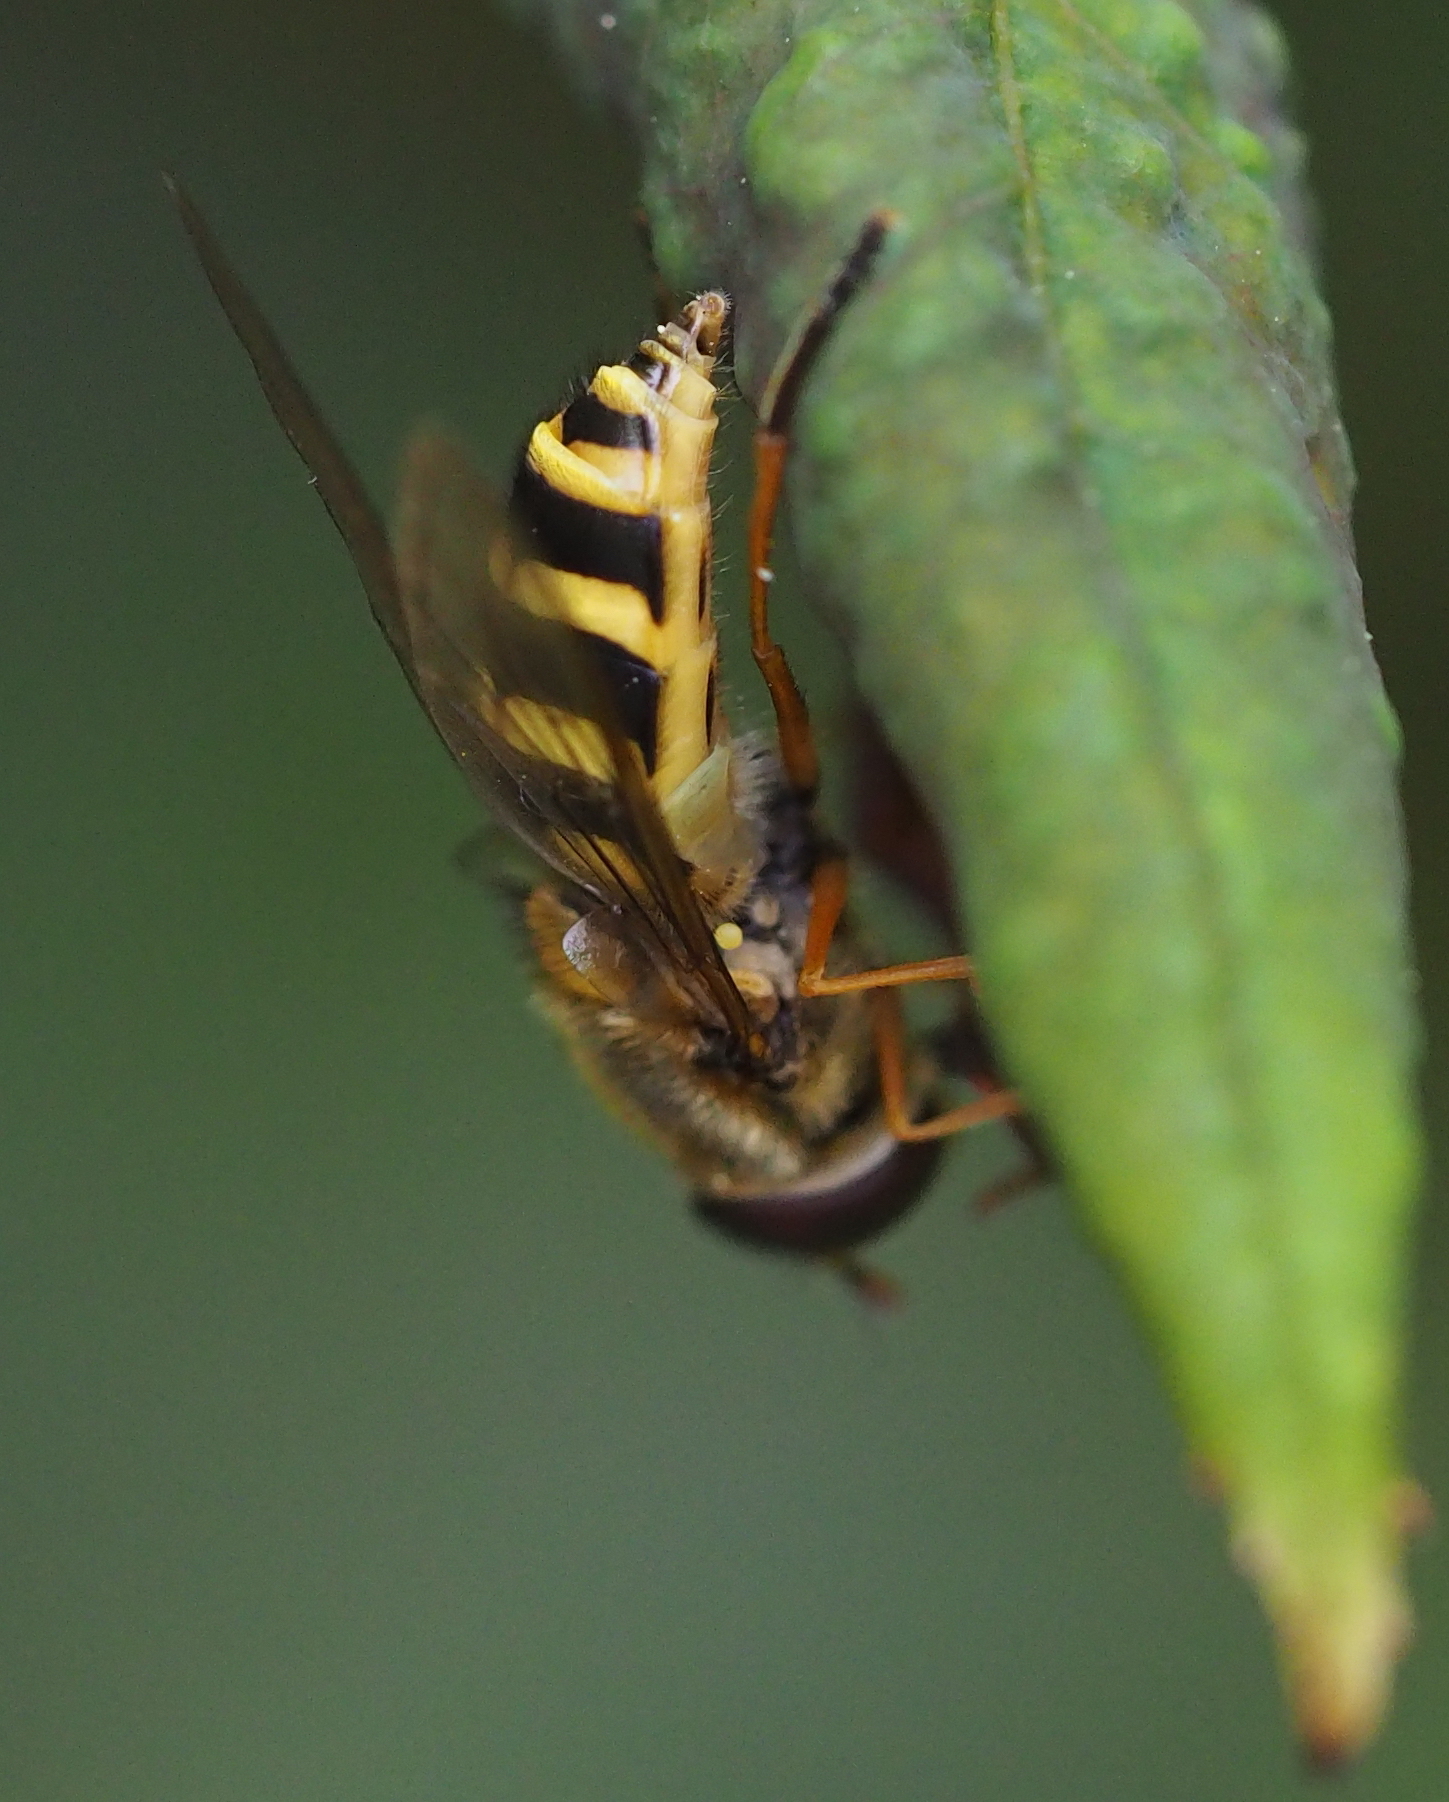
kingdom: Animalia
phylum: Arthropoda
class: Insecta
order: Diptera
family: Syrphidae
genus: Syrphus
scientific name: Syrphus ribesii
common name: Common flower fly
